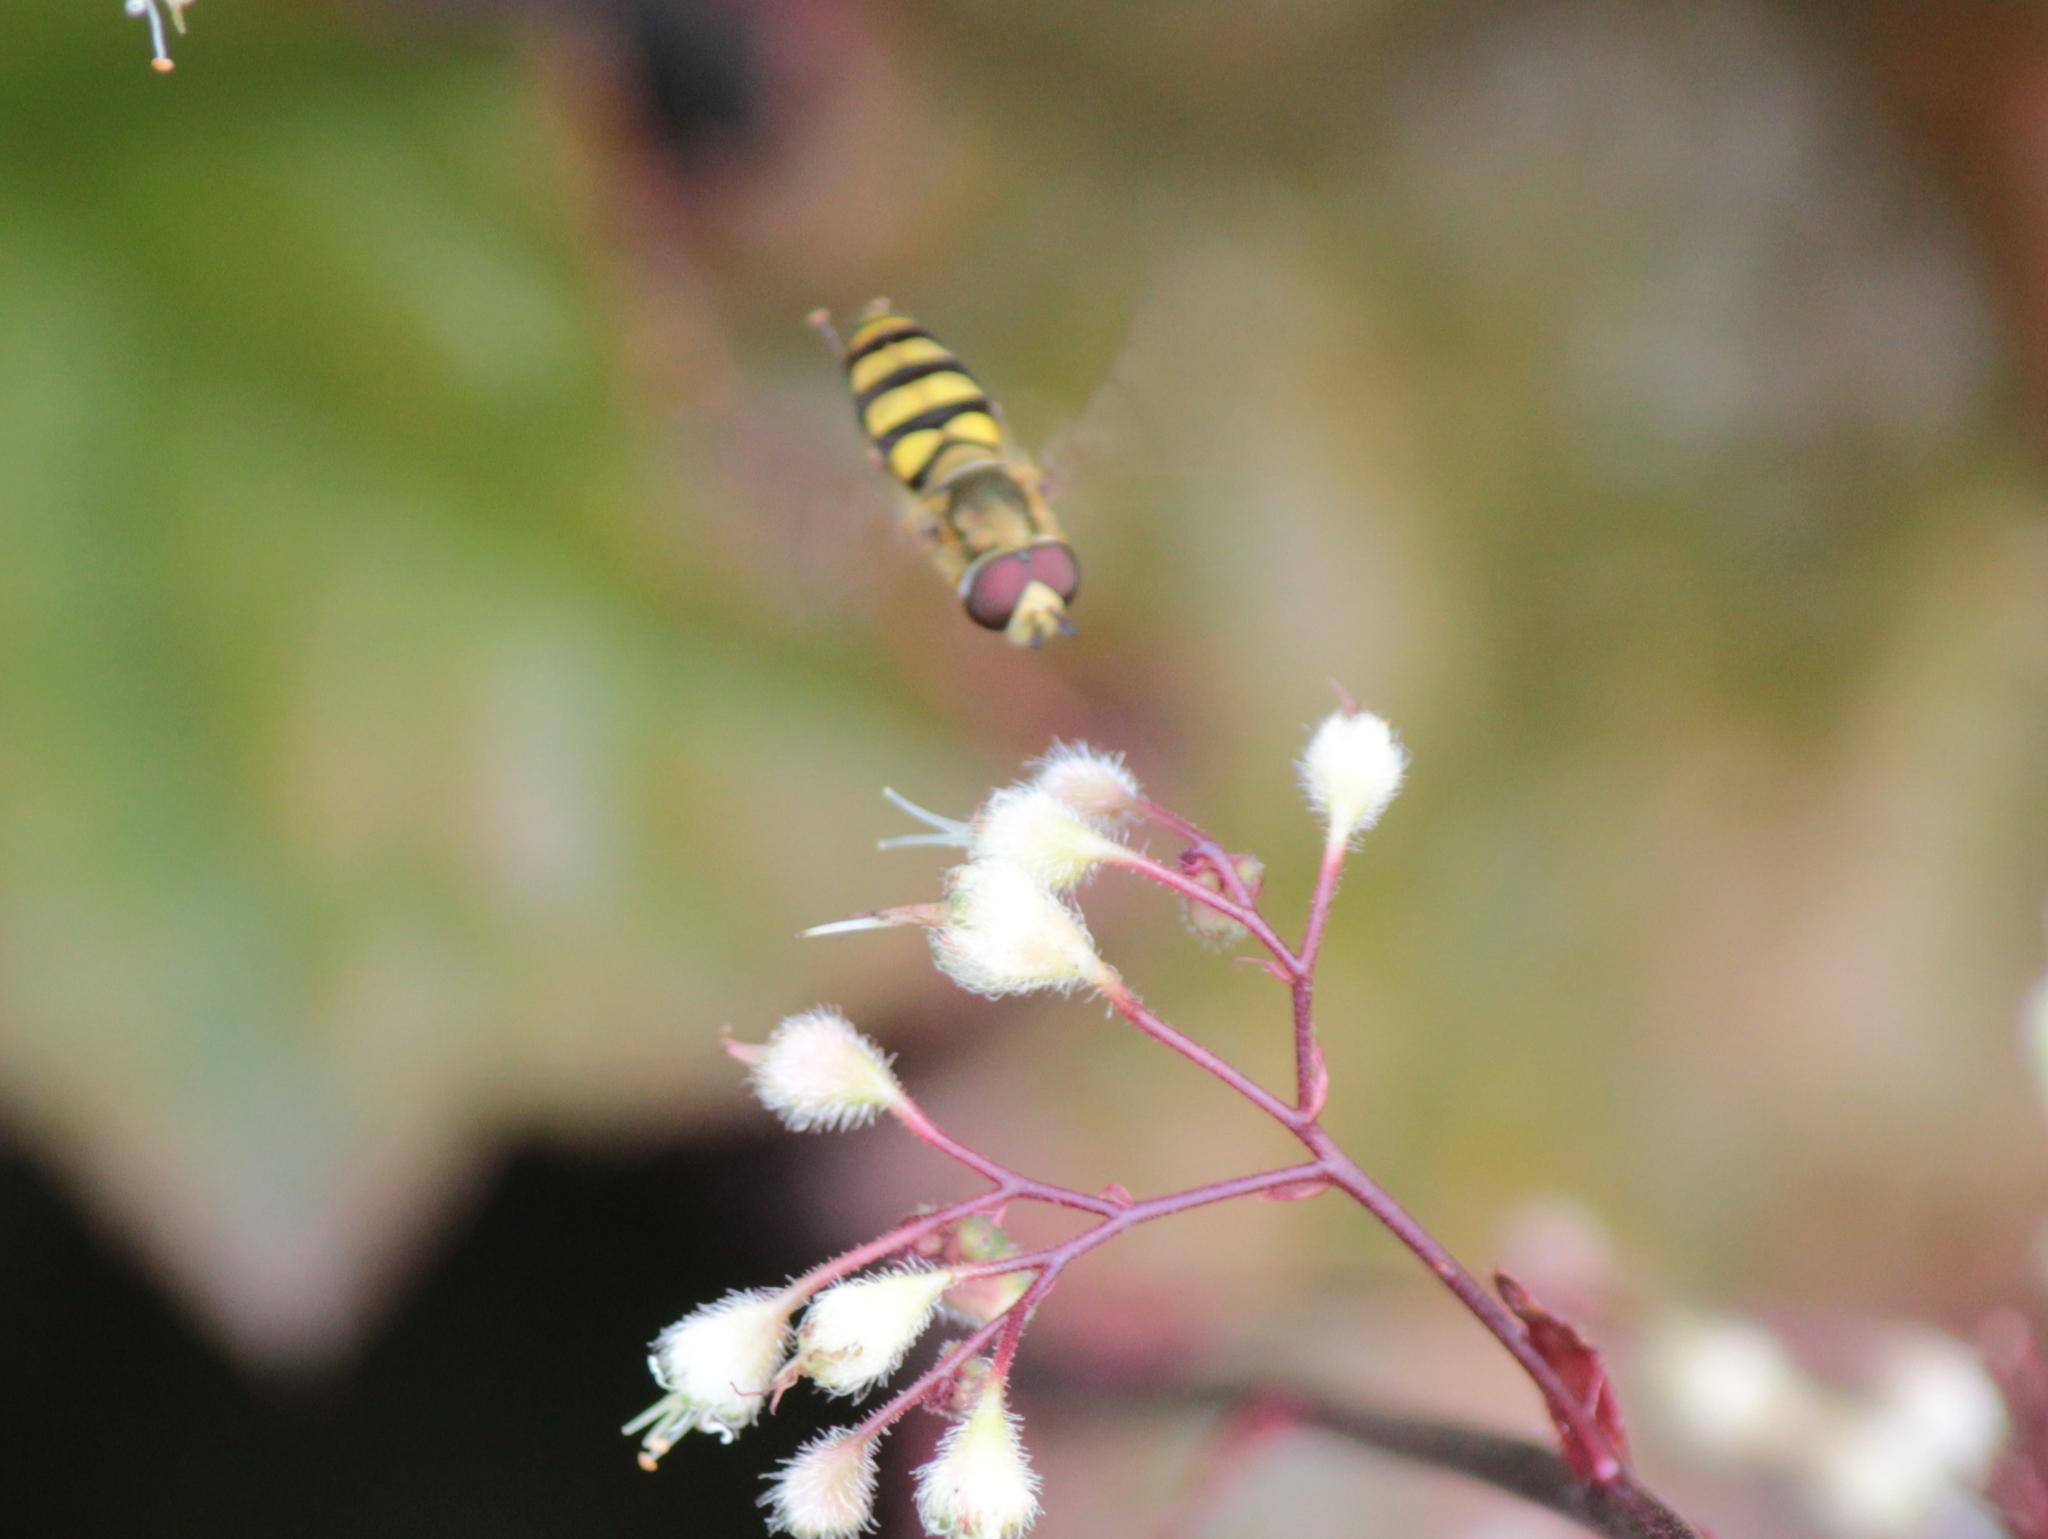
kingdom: Animalia
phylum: Arthropoda
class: Insecta
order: Diptera
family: Syrphidae
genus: Eupeodes
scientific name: Eupeodes
